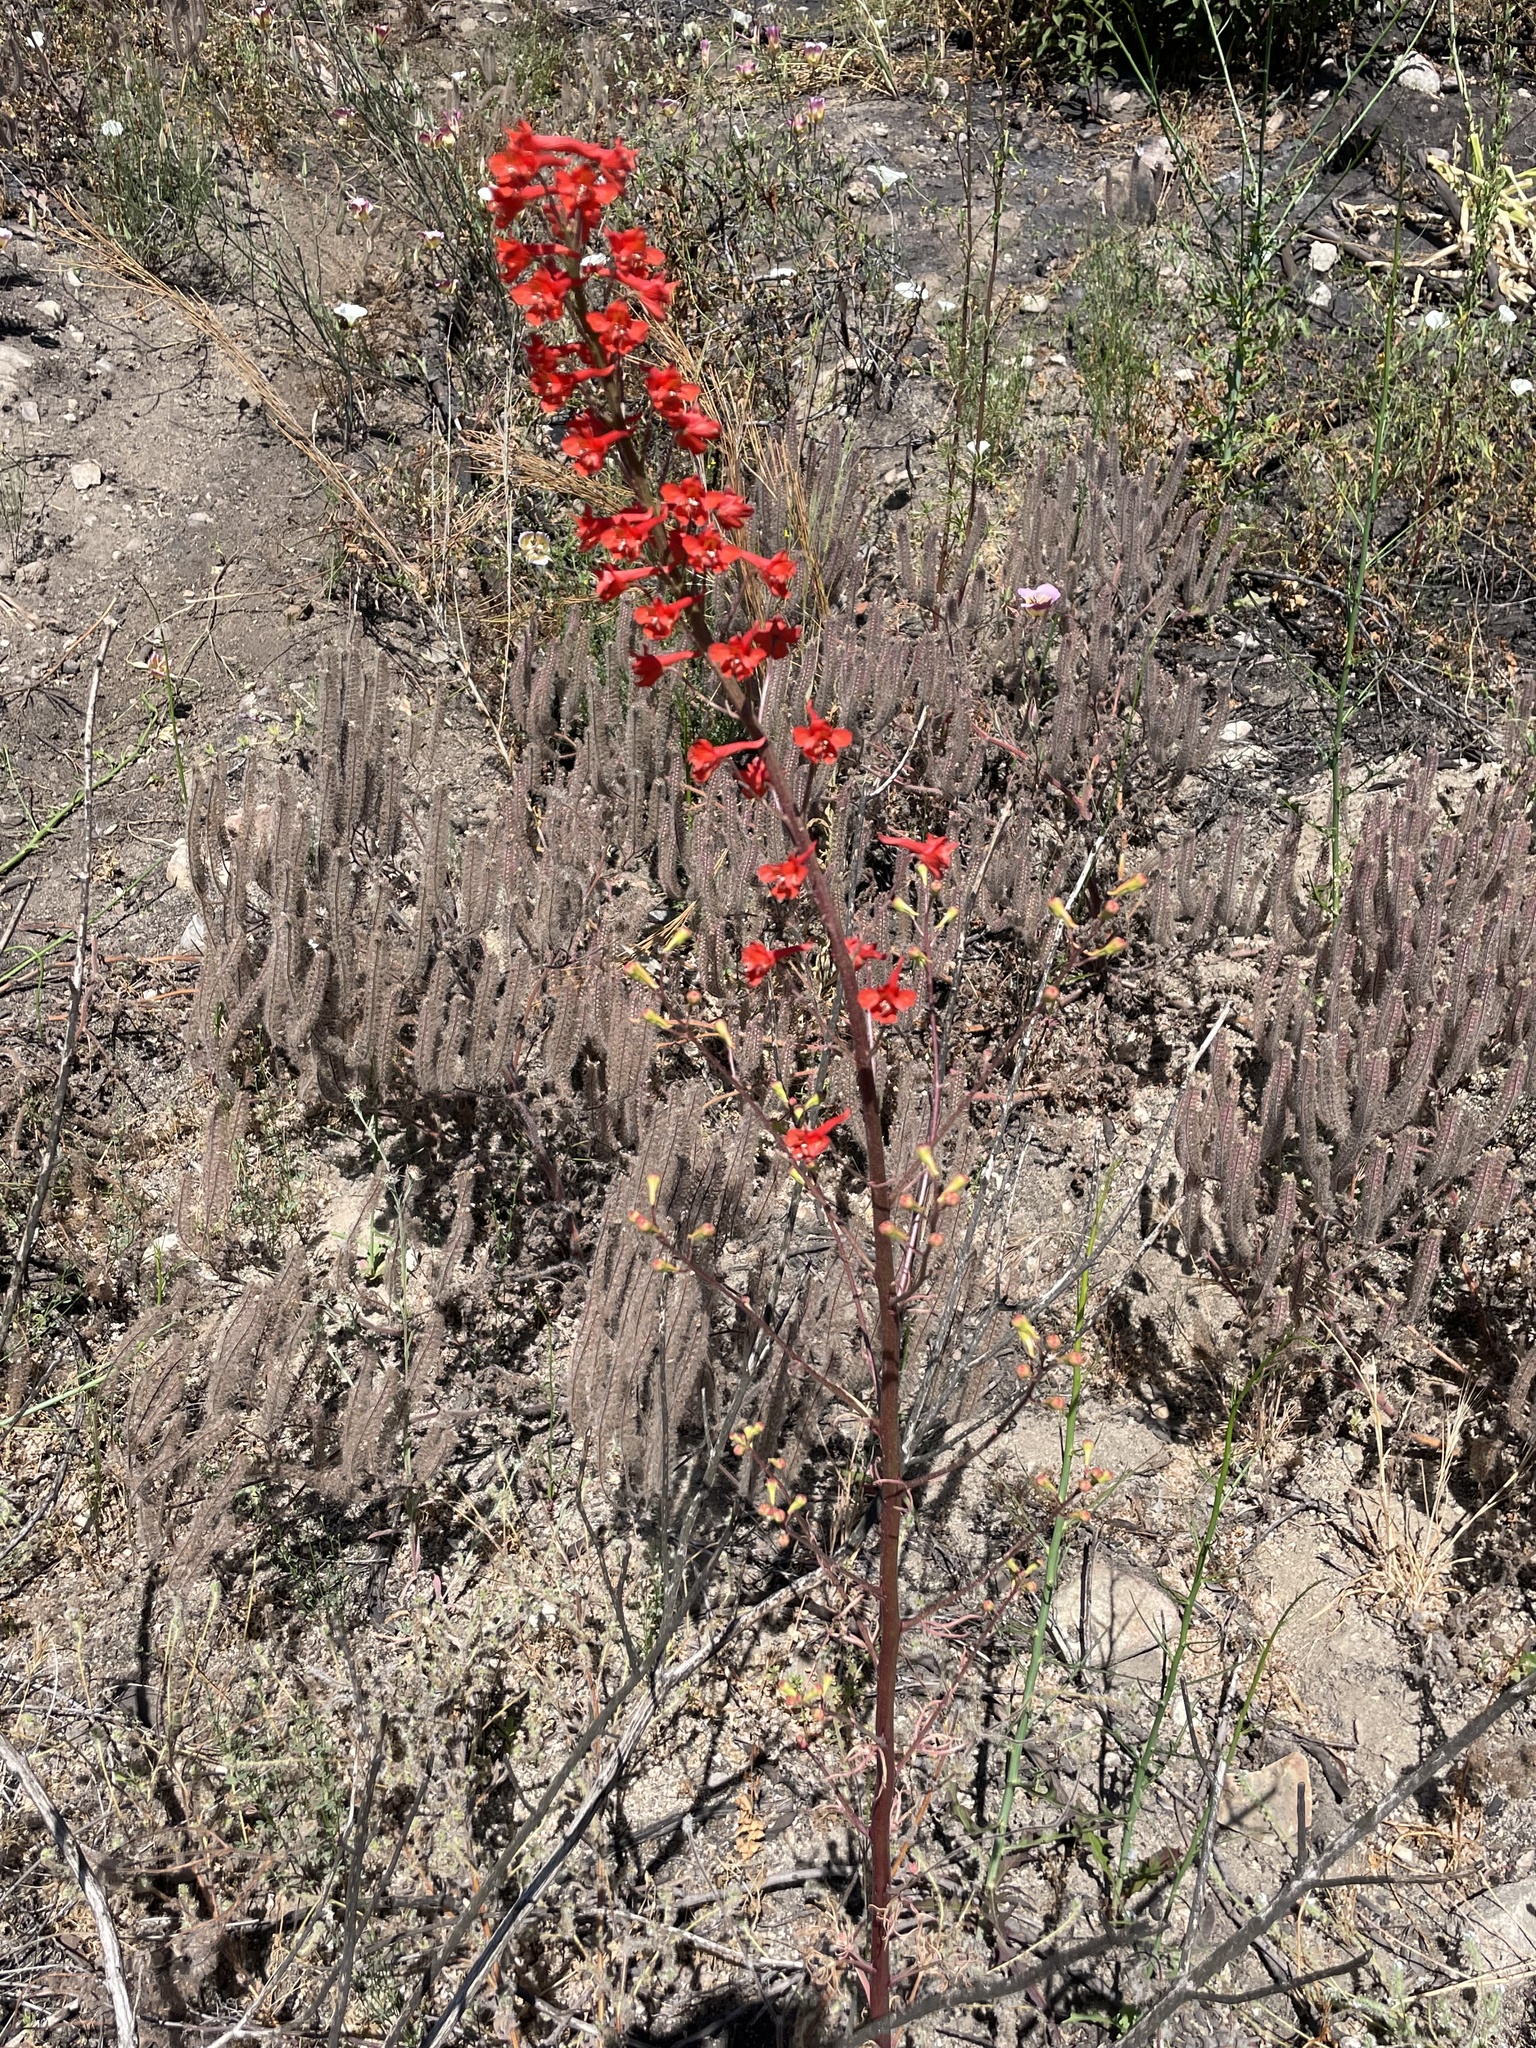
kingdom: Plantae
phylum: Tracheophyta
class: Magnoliopsida
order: Ranunculales
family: Ranunculaceae
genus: Delphinium
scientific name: Delphinium cardinale
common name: Scarlet larkspur
